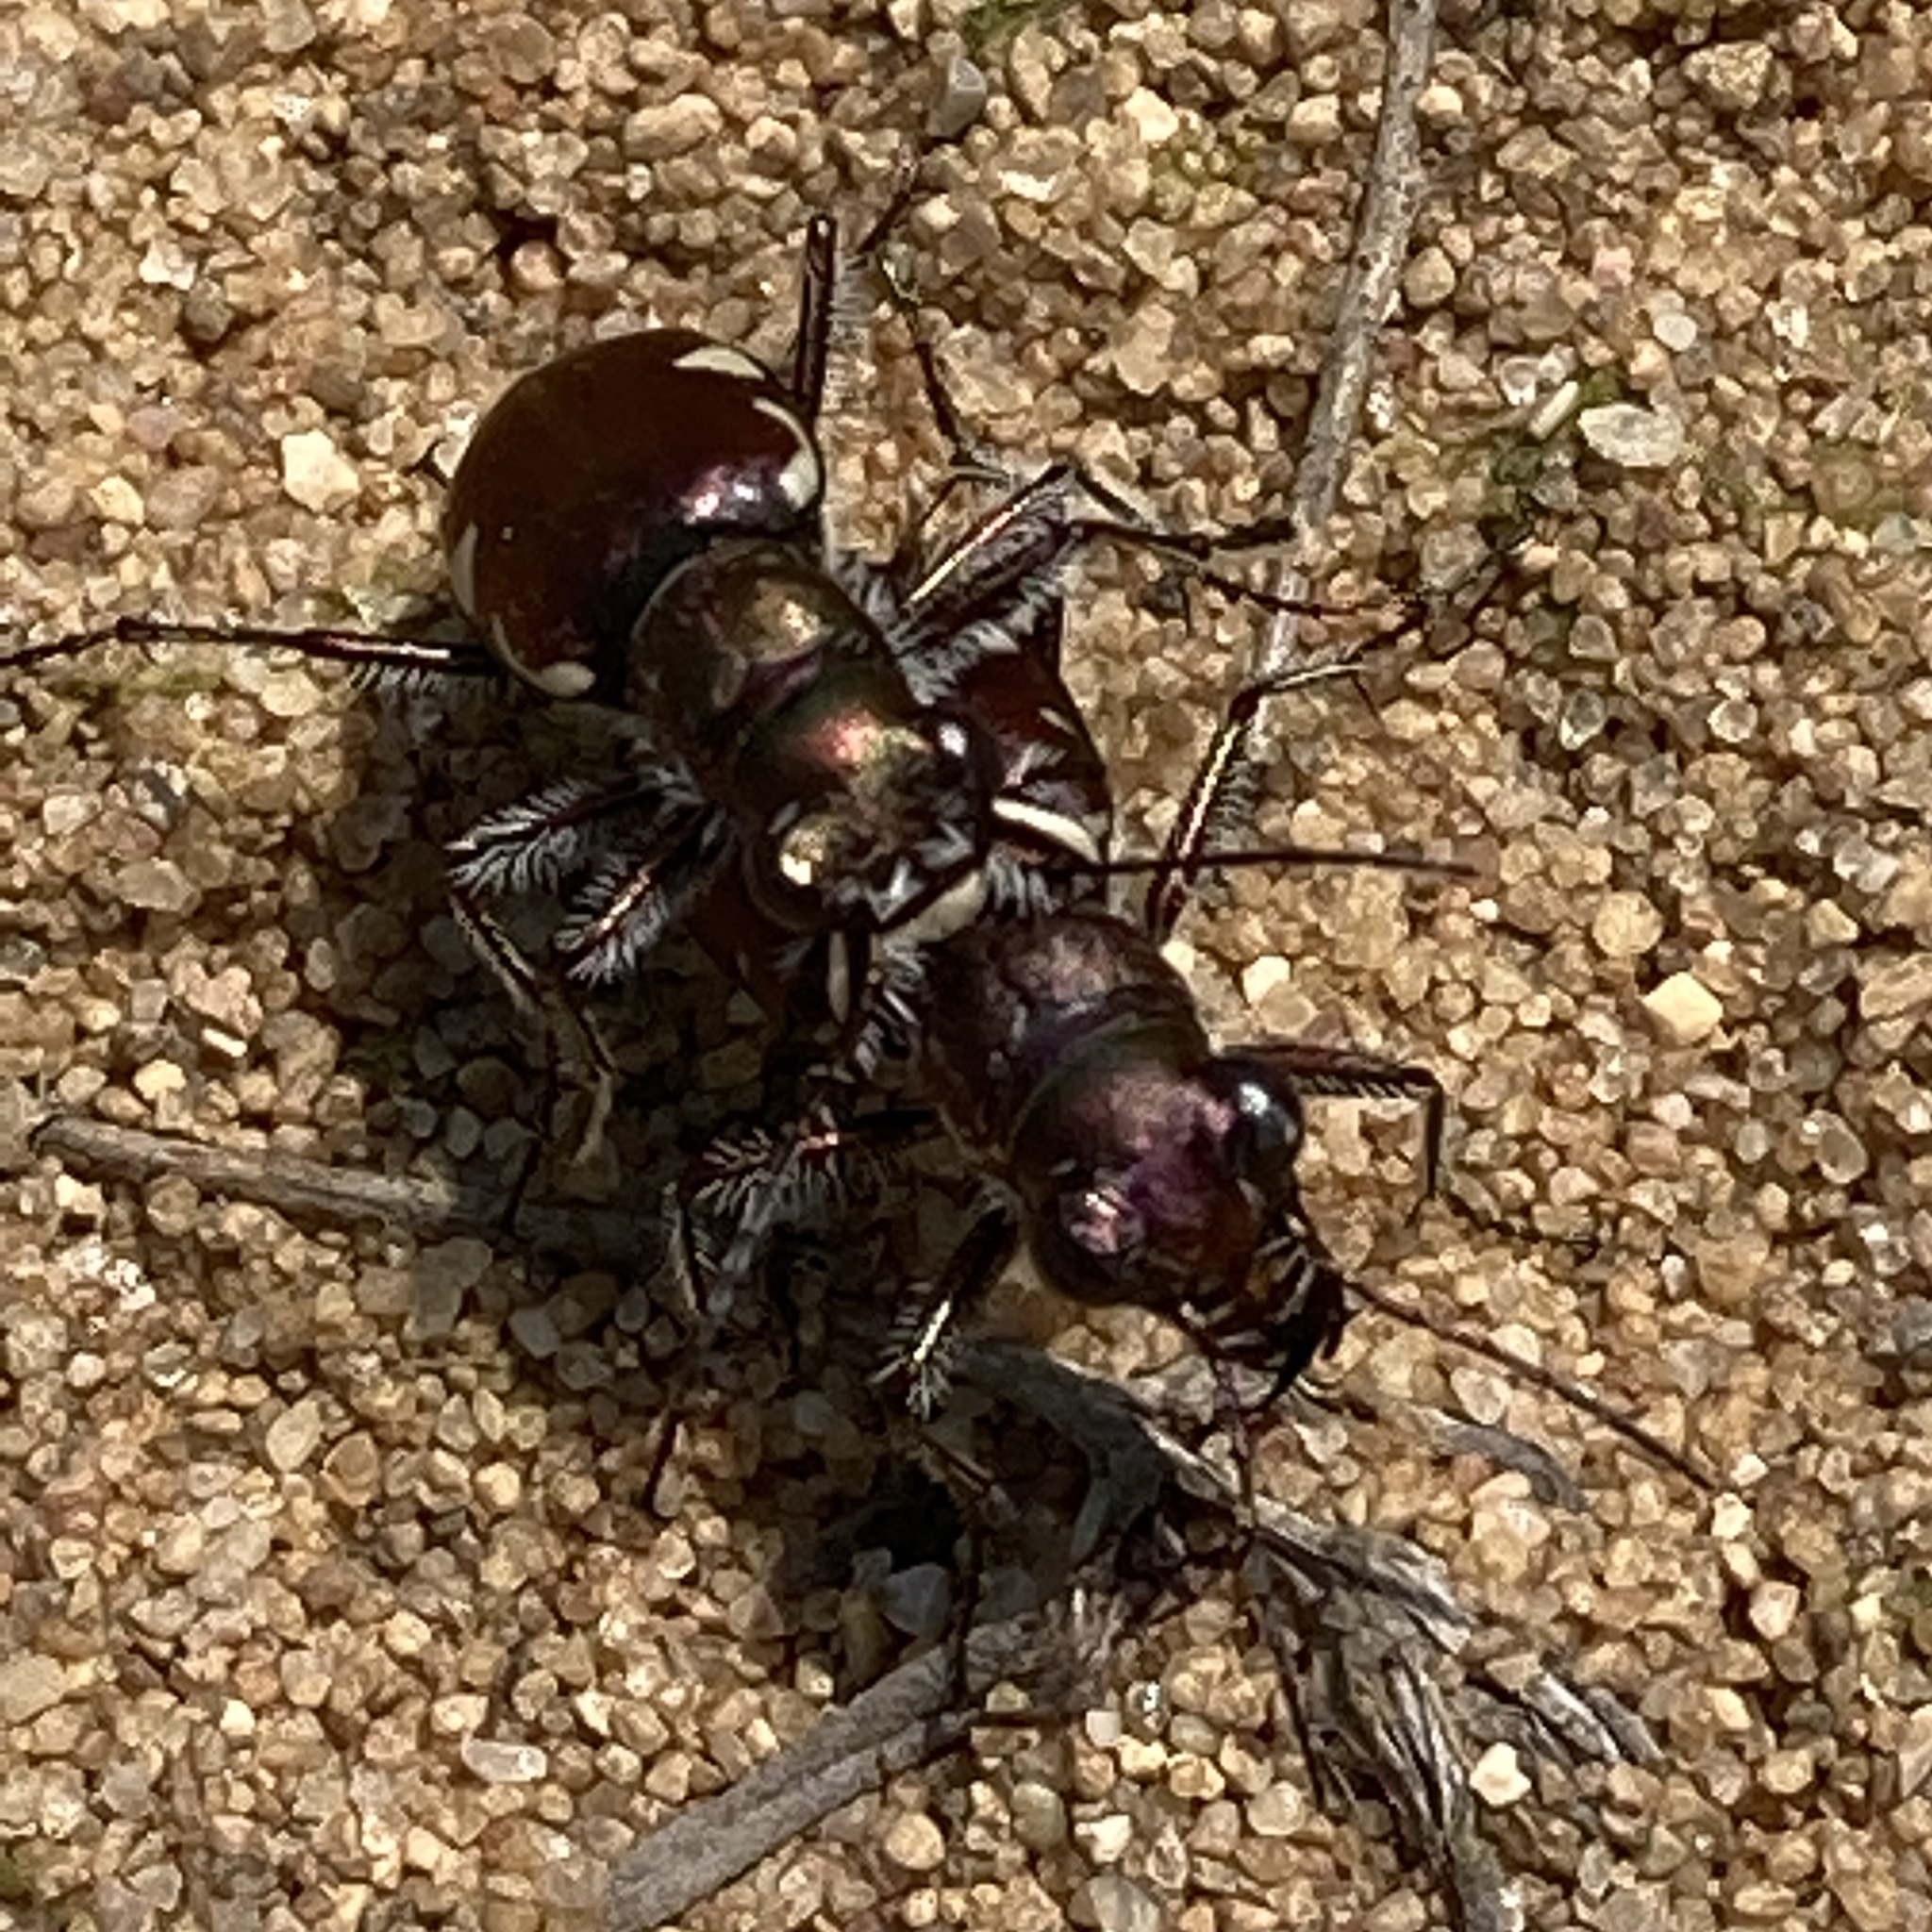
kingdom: Animalia
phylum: Arthropoda
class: Insecta
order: Coleoptera
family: Carabidae
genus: Cicindela
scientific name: Cicindela scutellaris
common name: Festive tiger beetle
